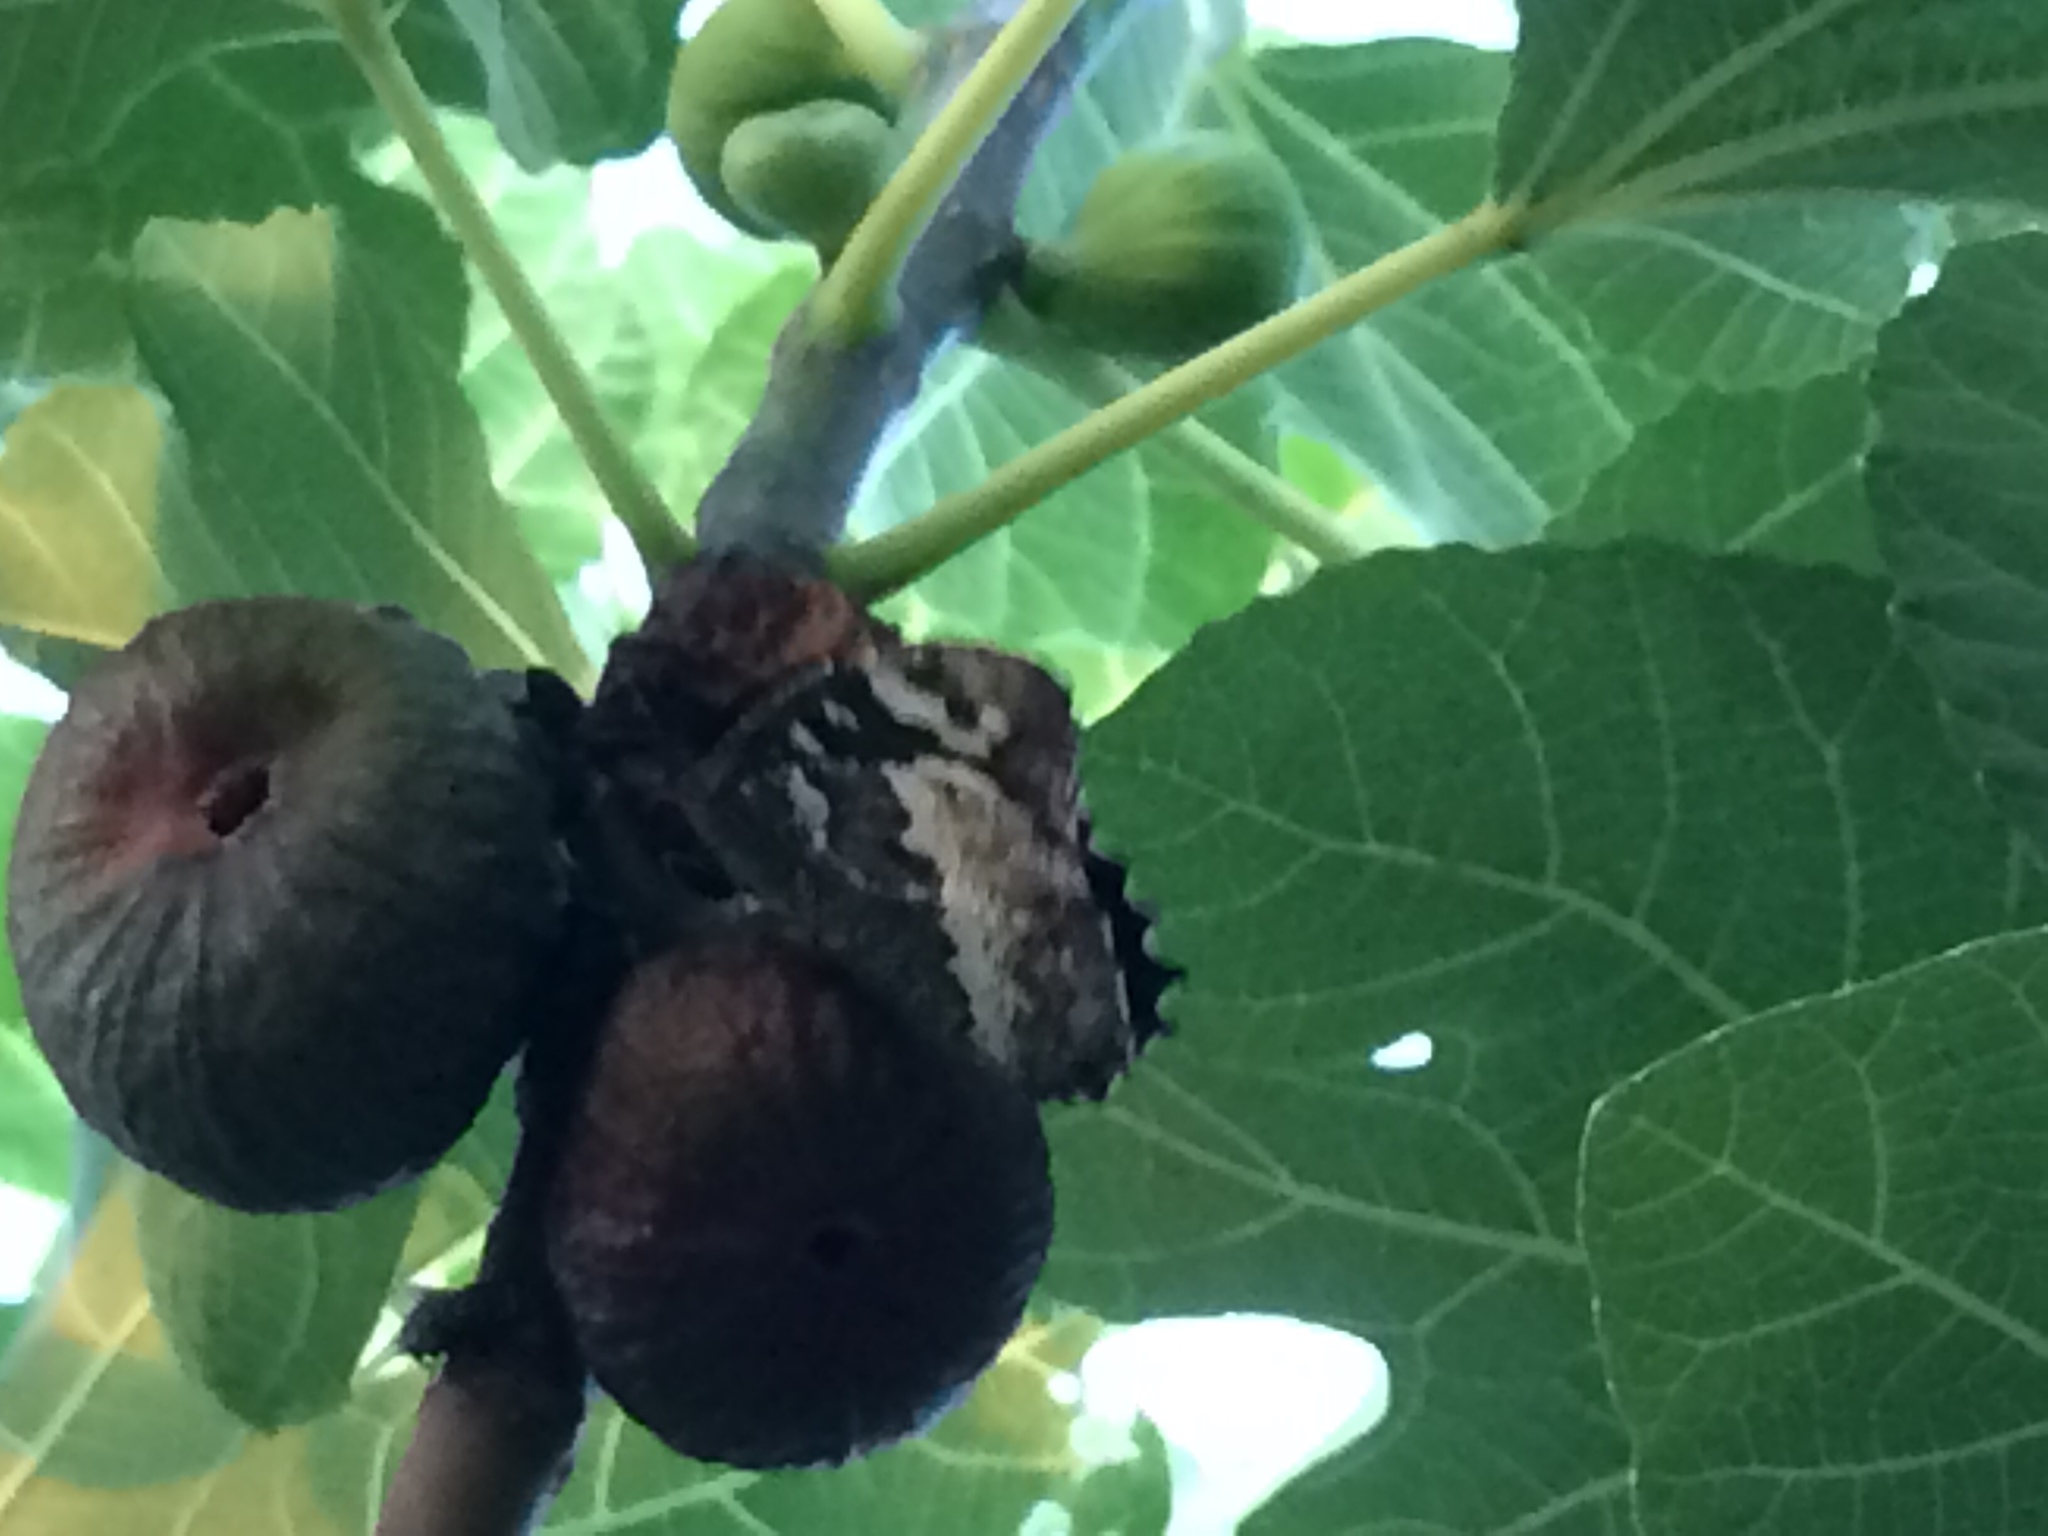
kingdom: Animalia
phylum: Arthropoda
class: Insecta
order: Lepidoptera
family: Lycaenidae
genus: Loweia
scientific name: Loweia tityrus
